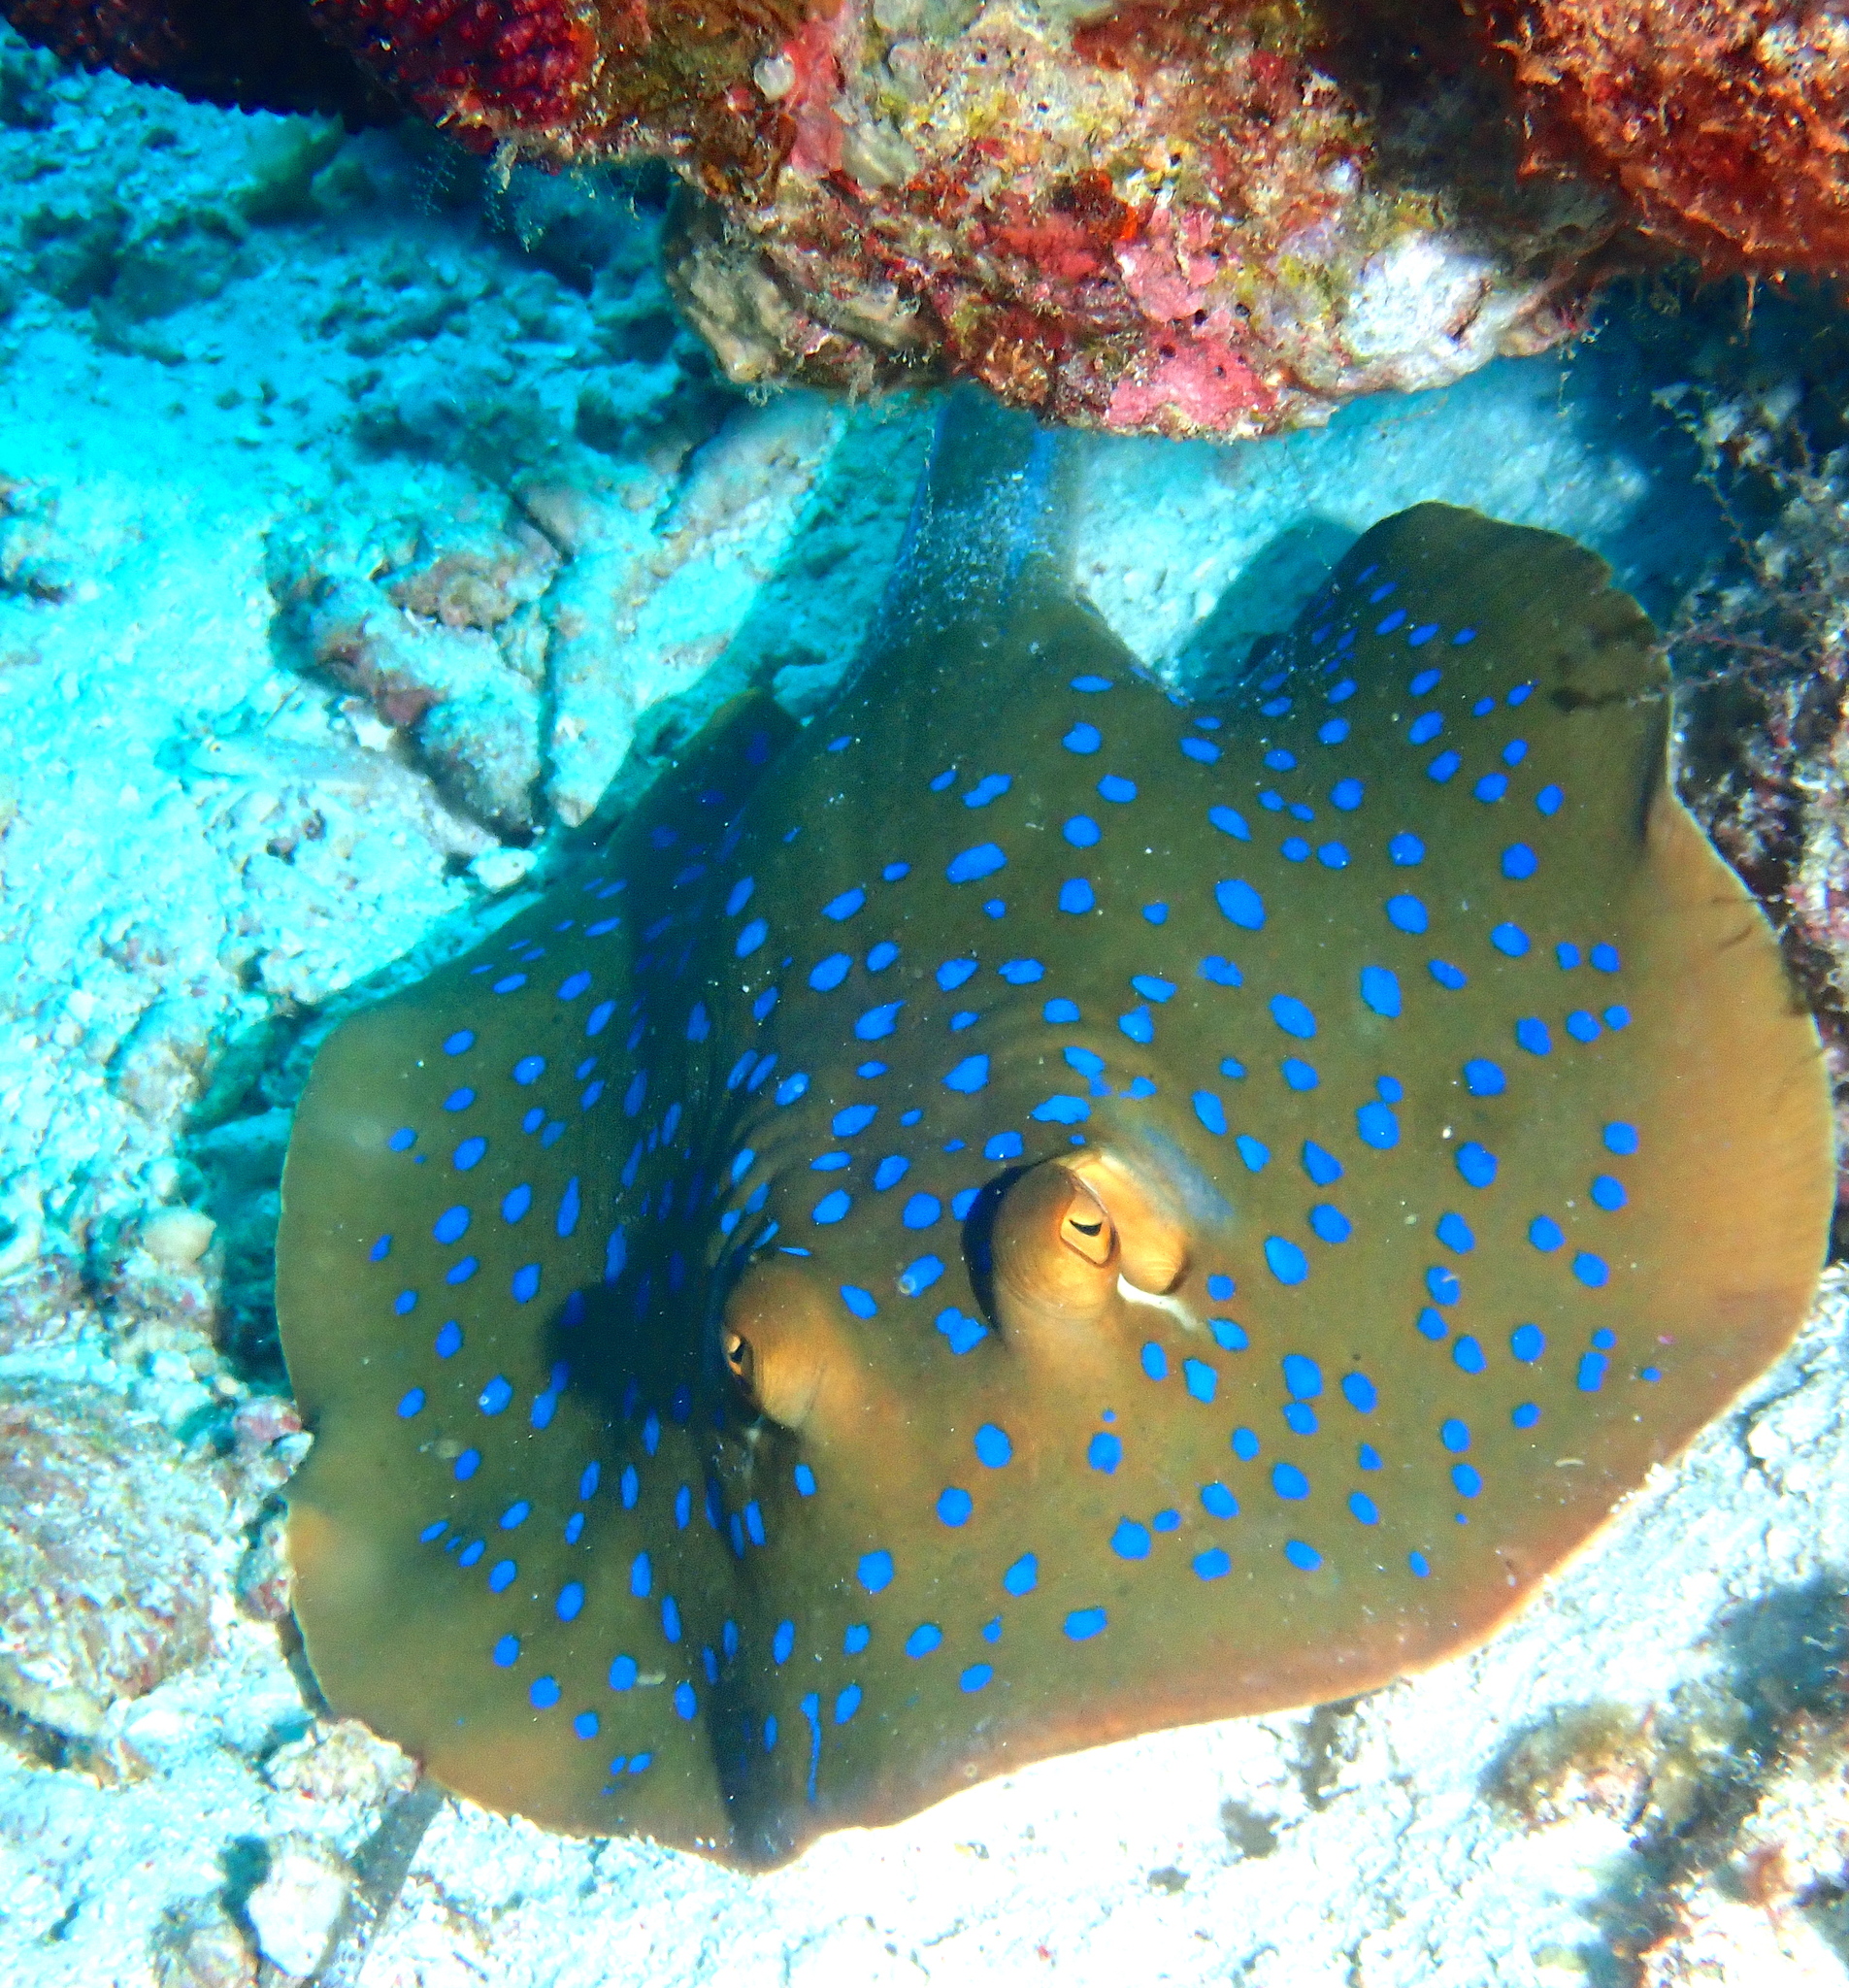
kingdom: Animalia
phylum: Chordata
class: Elasmobranchii
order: Myliobatiformes
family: Dasyatidae
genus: Taeniura
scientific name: Taeniura lymma
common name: Bluespotted ribbontail ray
